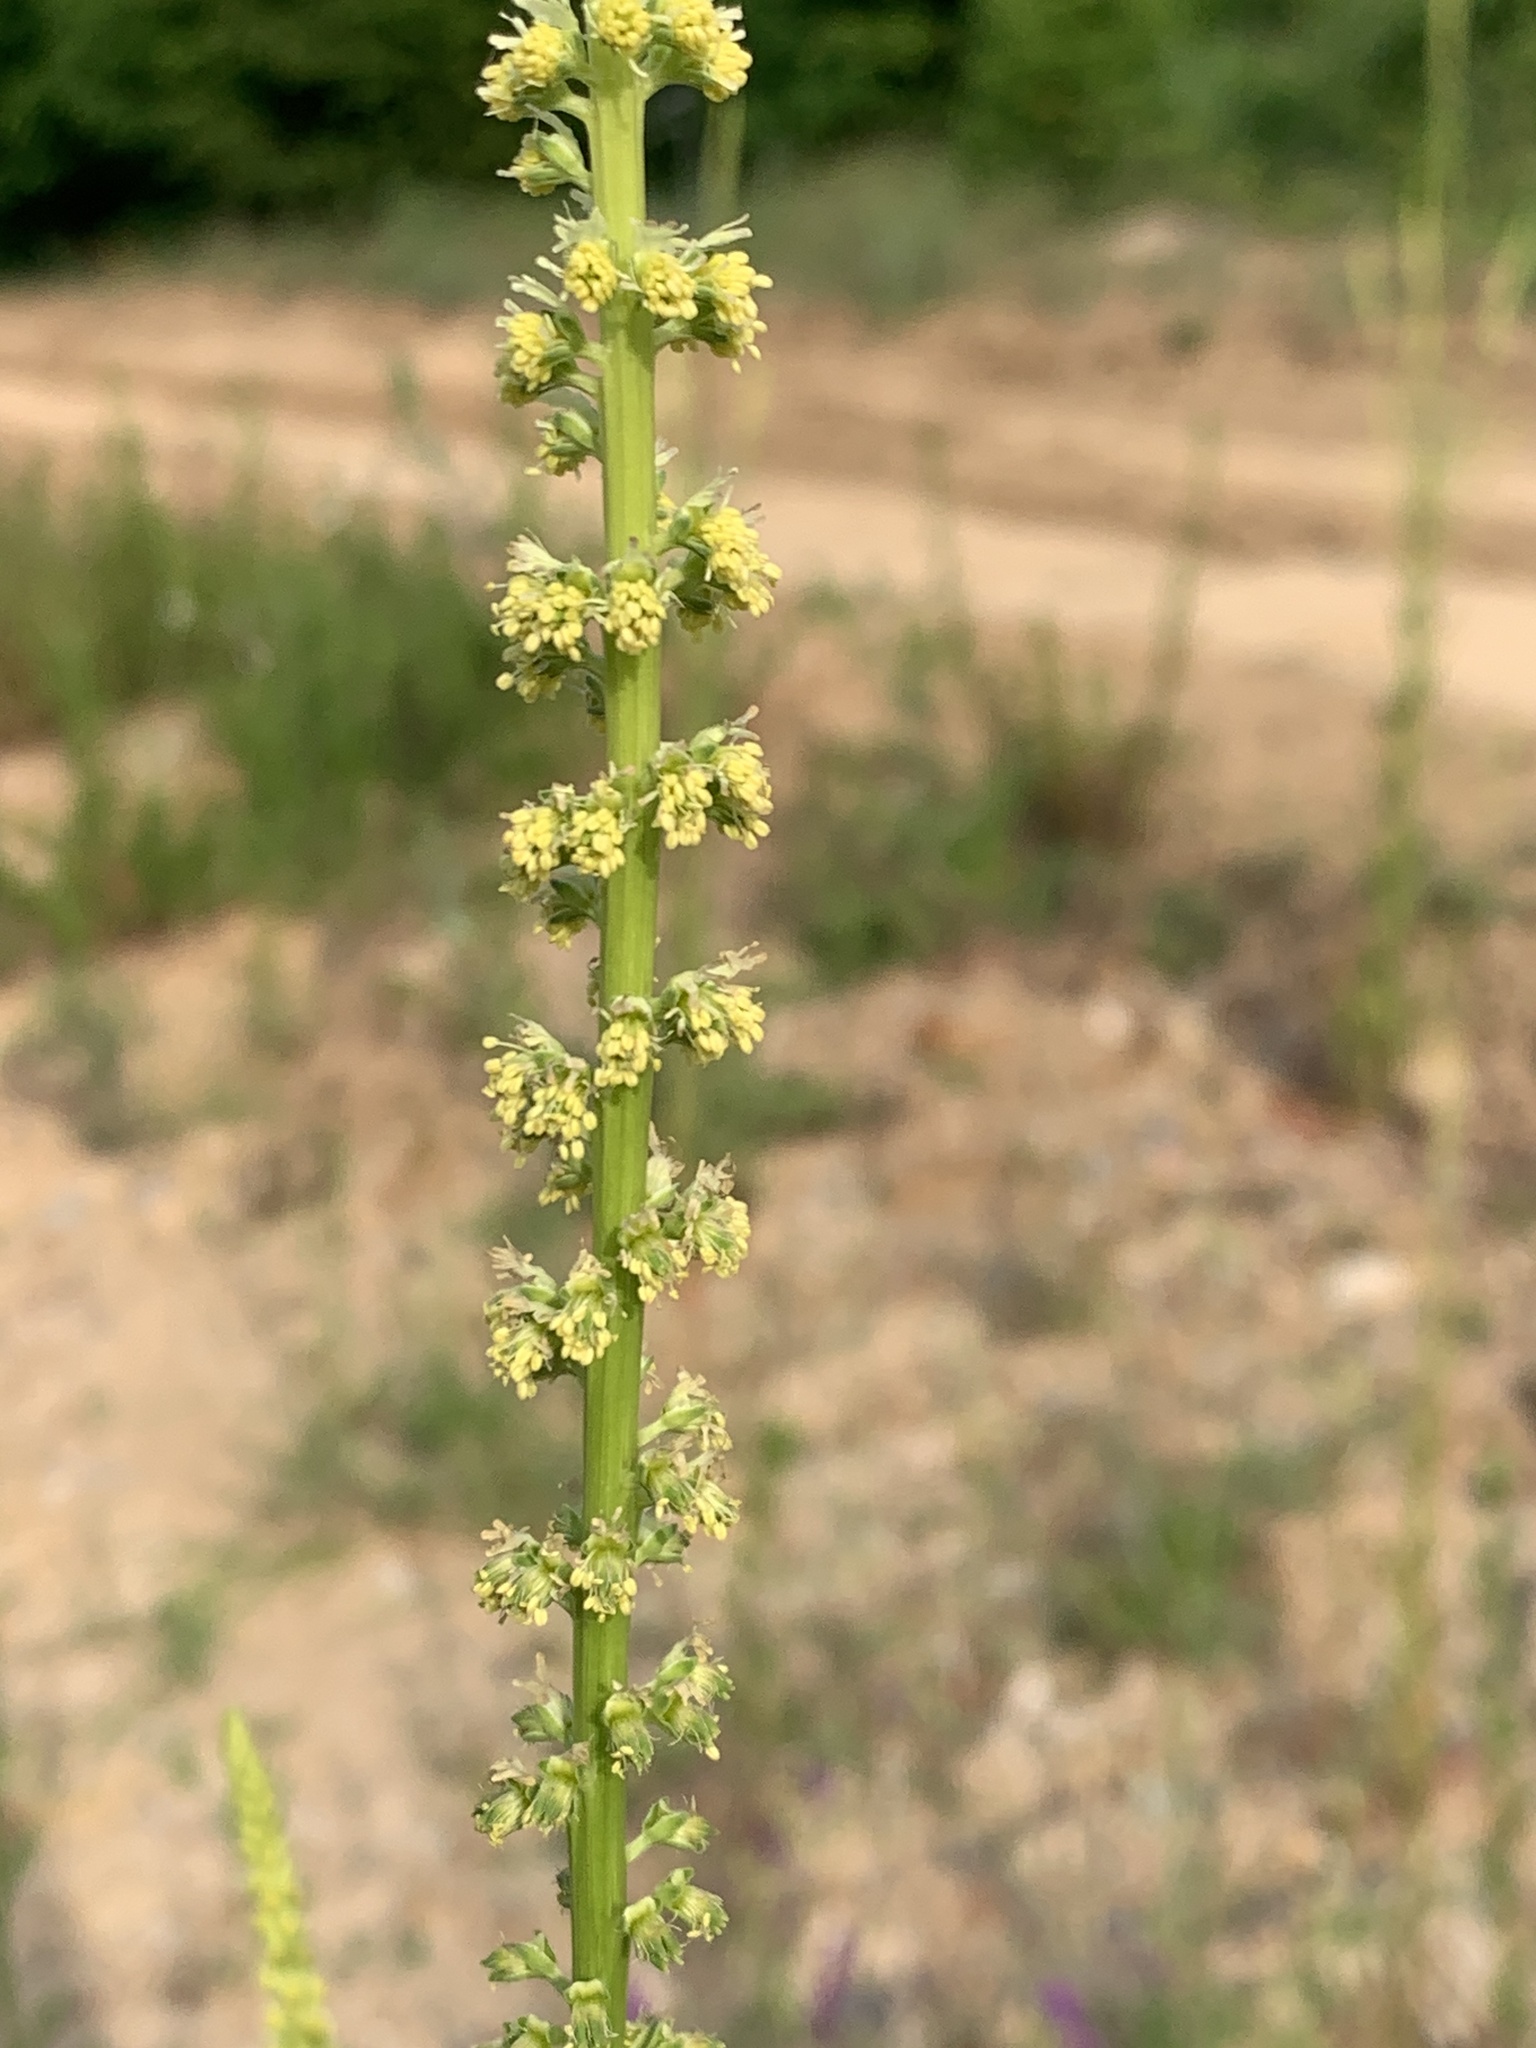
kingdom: Plantae
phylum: Tracheophyta
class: Magnoliopsida
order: Brassicales
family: Resedaceae
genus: Reseda
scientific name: Reseda luteola
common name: Weld
